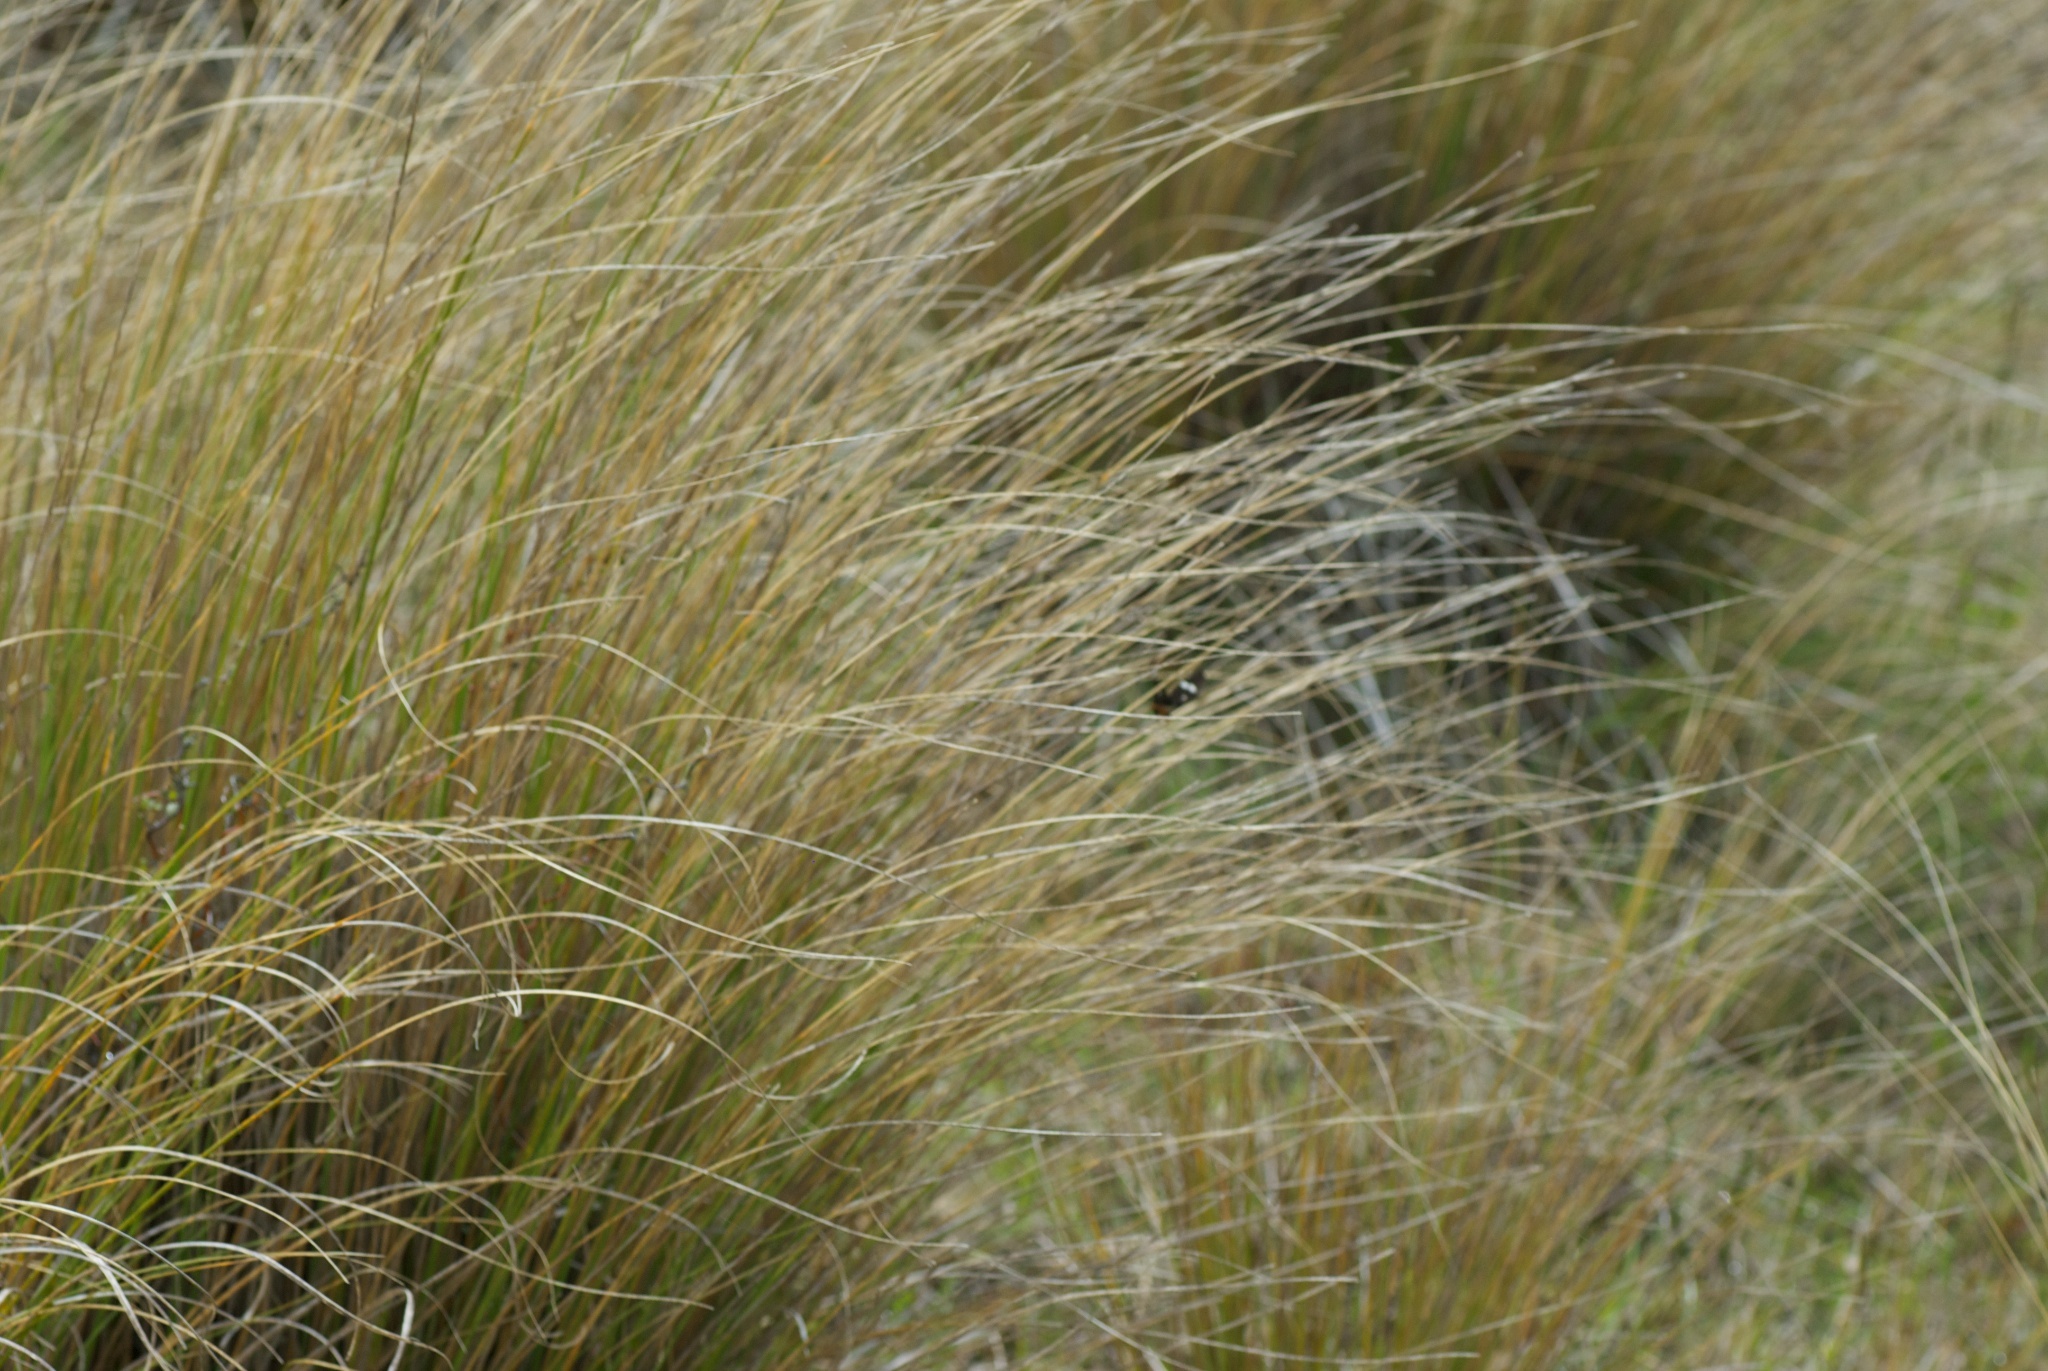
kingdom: Animalia
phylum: Arthropoda
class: Insecta
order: Lepidoptera
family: Erebidae
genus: Nyctemera
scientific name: Nyctemera annulatum
